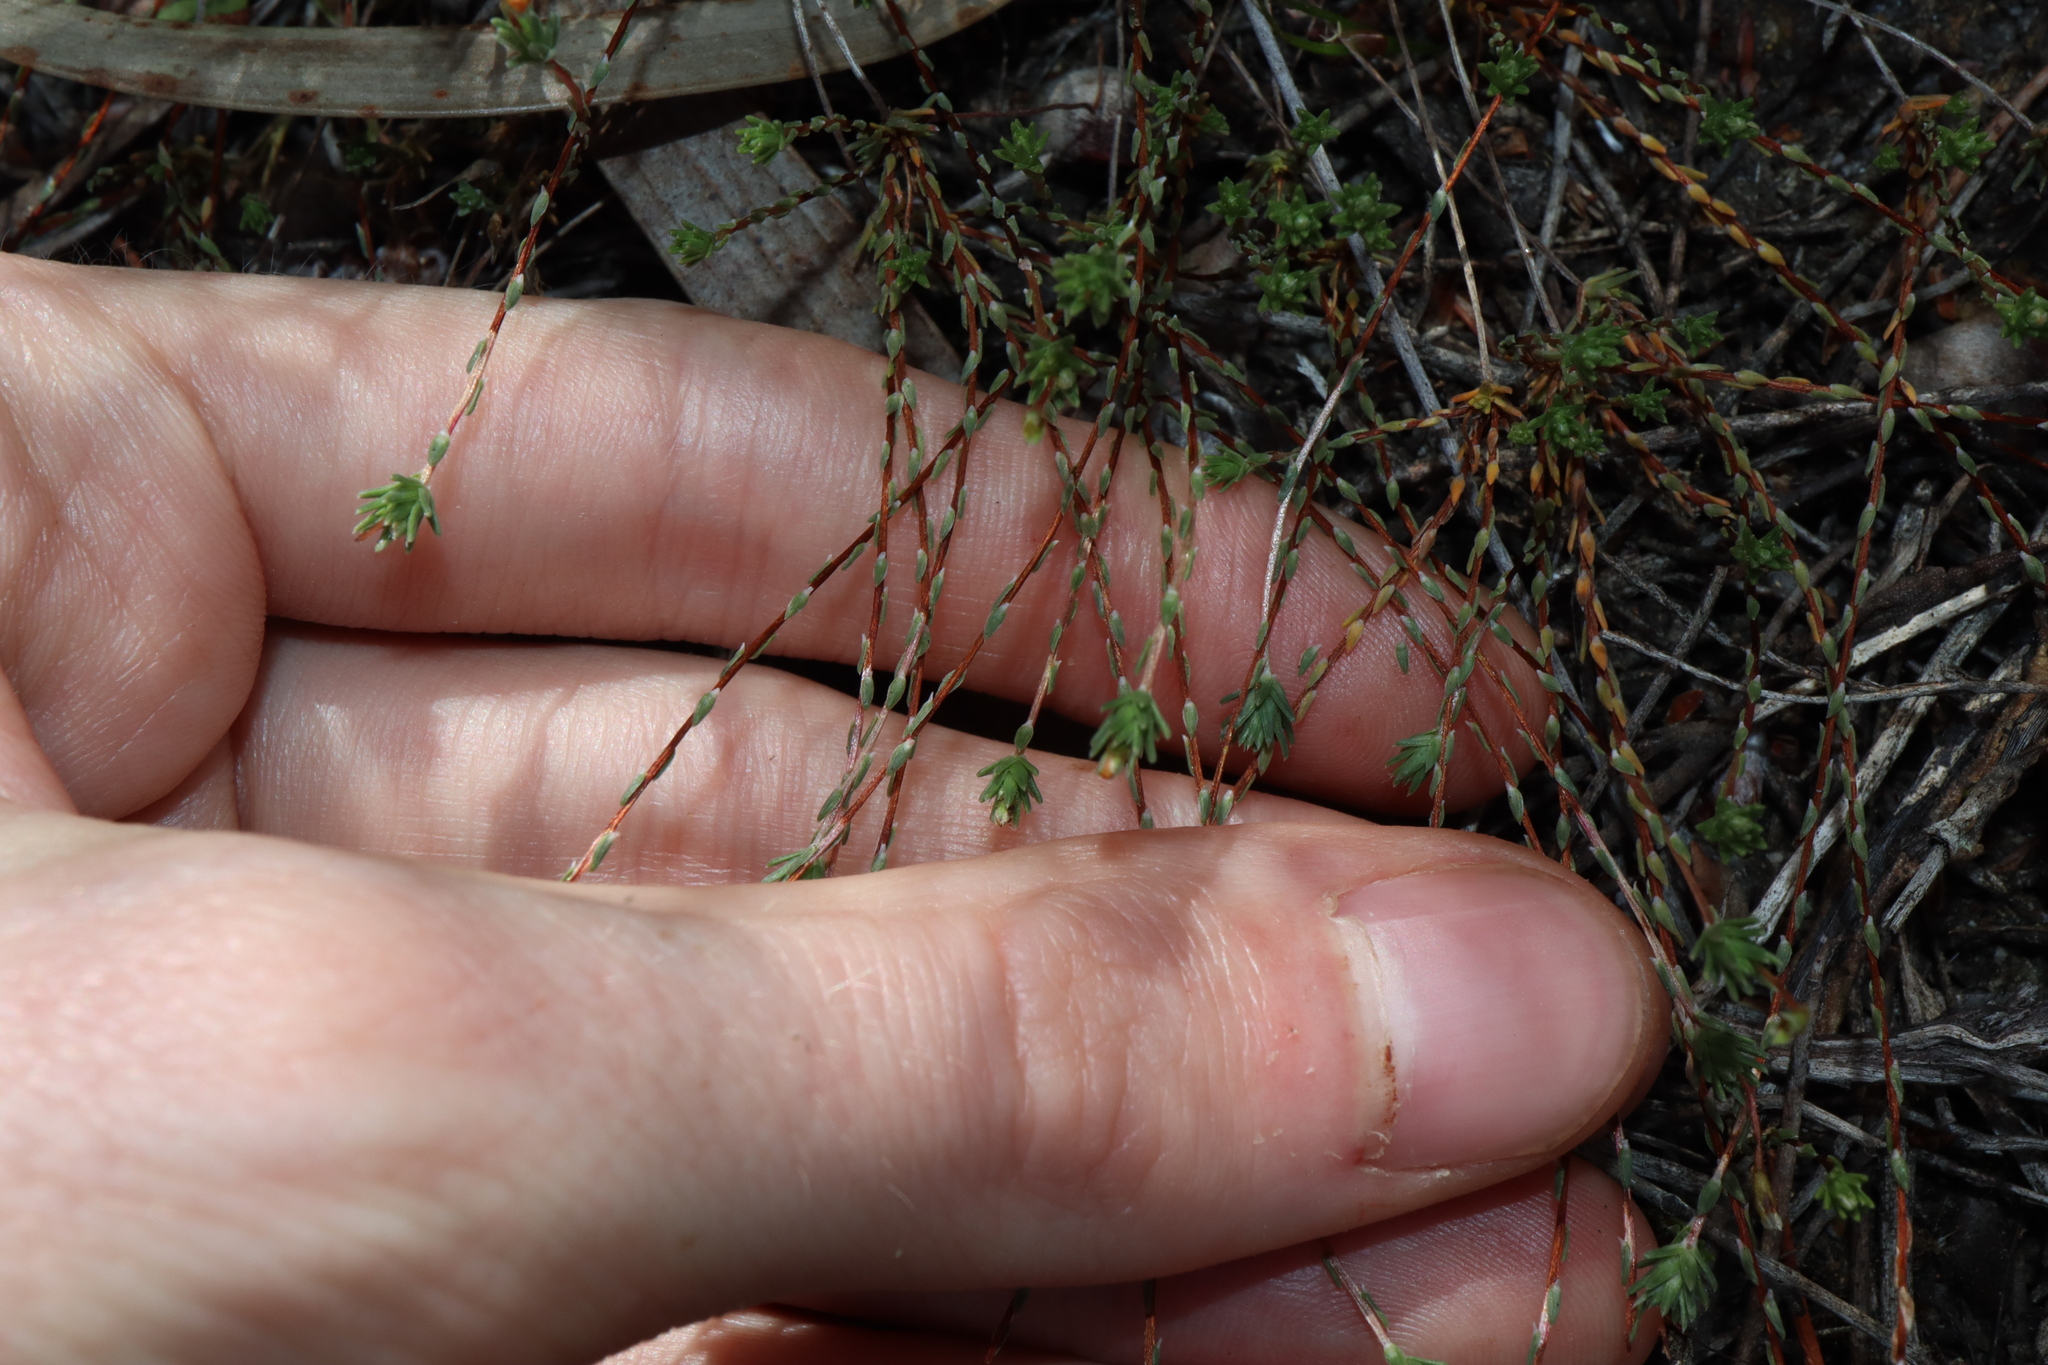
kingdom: Plantae
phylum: Tracheophyta
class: Magnoliopsida
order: Asterales
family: Stylidiaceae
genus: Stylidium
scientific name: Stylidium repens
